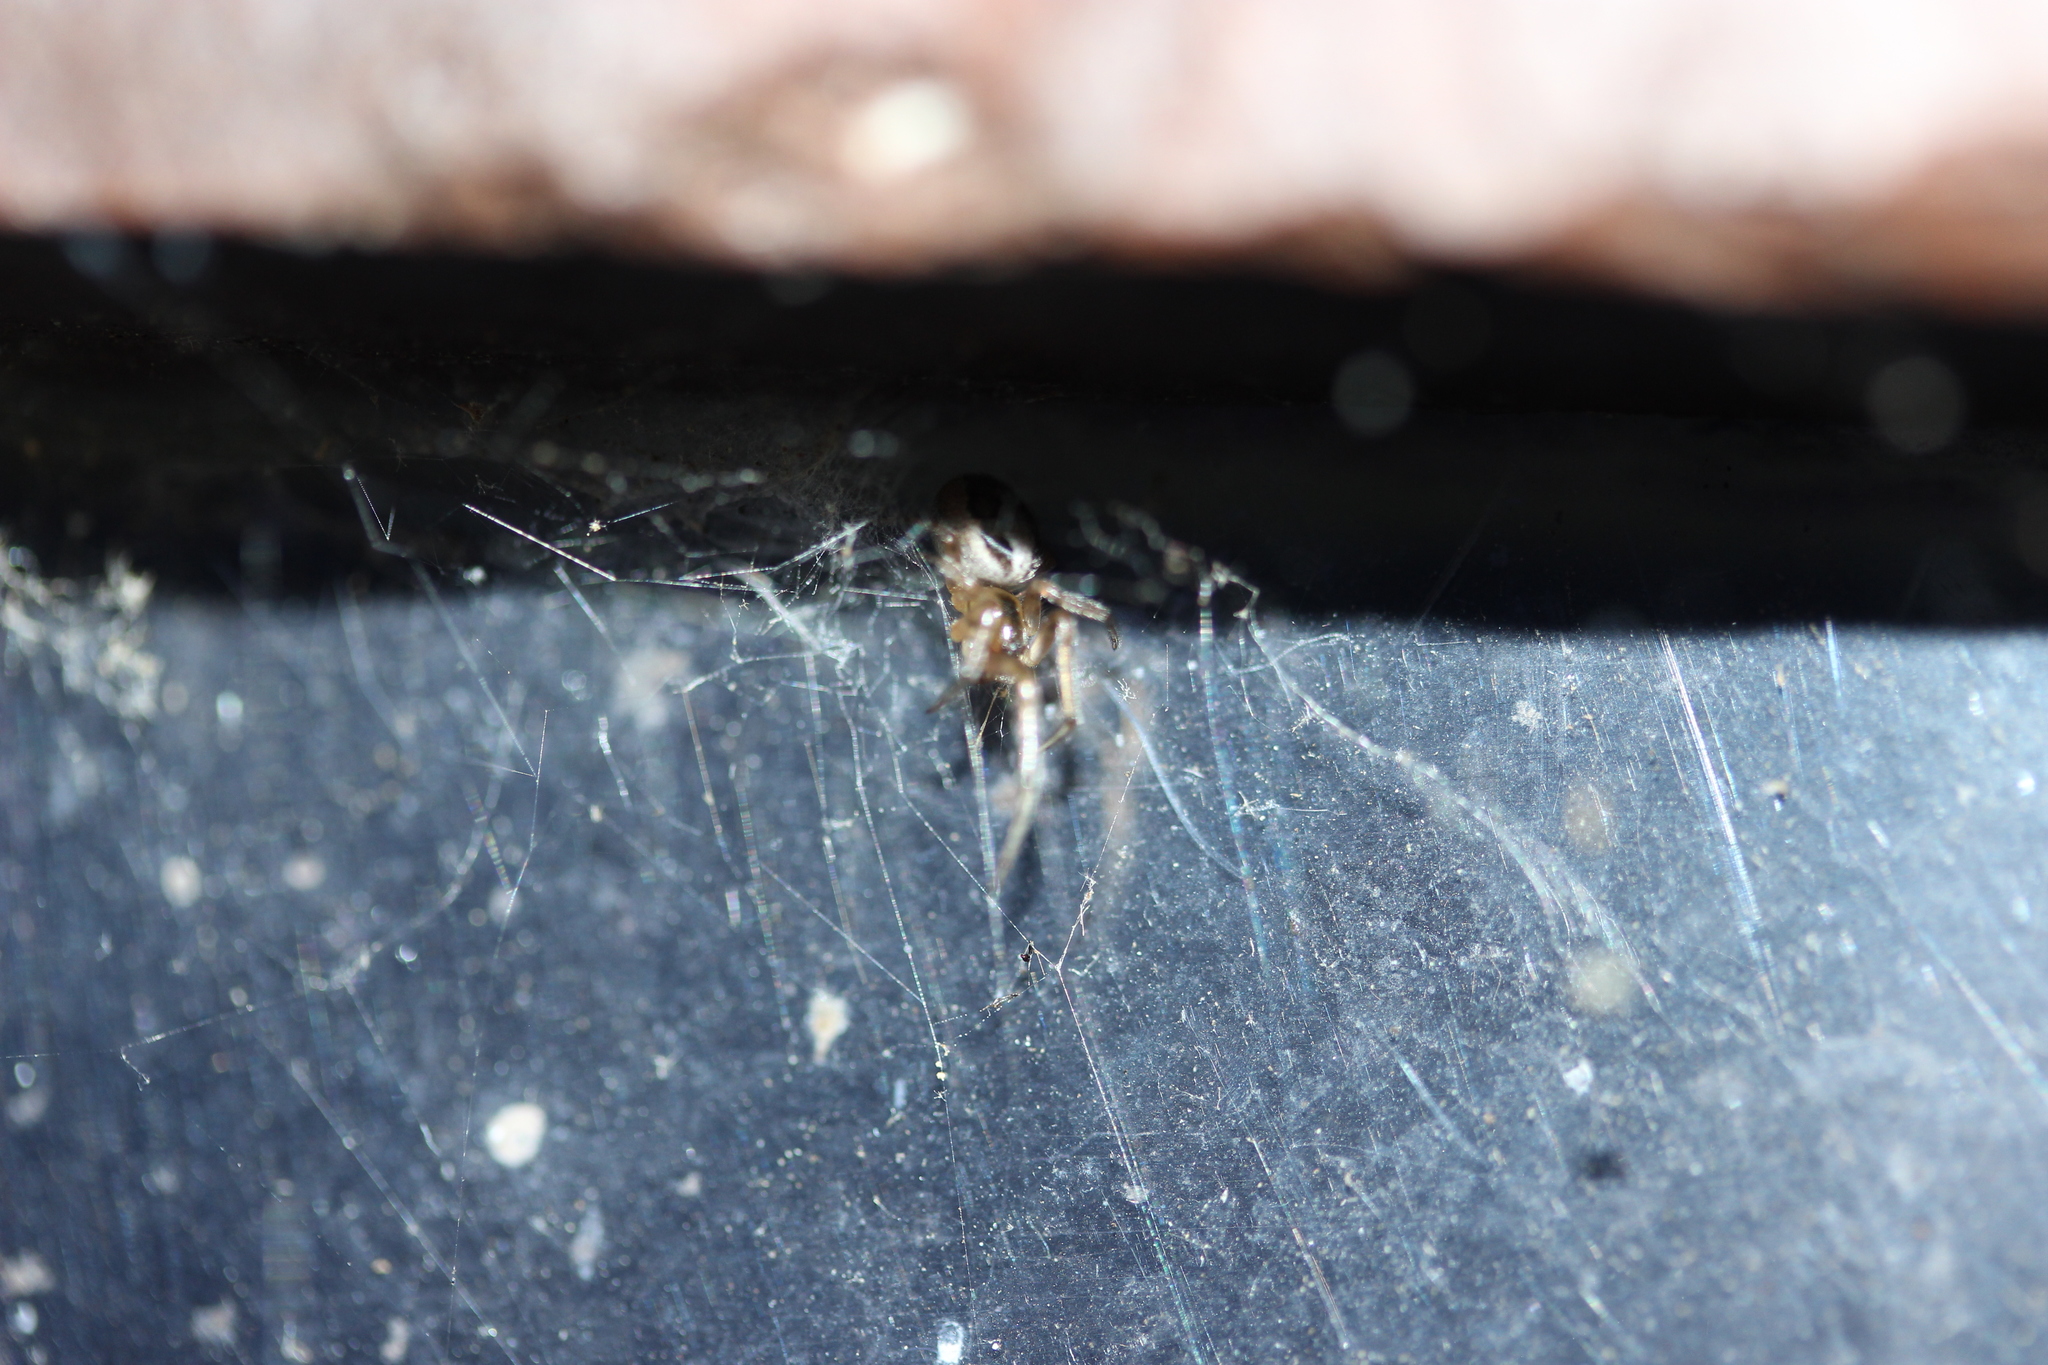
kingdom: Animalia
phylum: Arthropoda
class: Arachnida
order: Araneae
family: Araneidae
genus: Zygiella
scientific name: Zygiella x-notata
